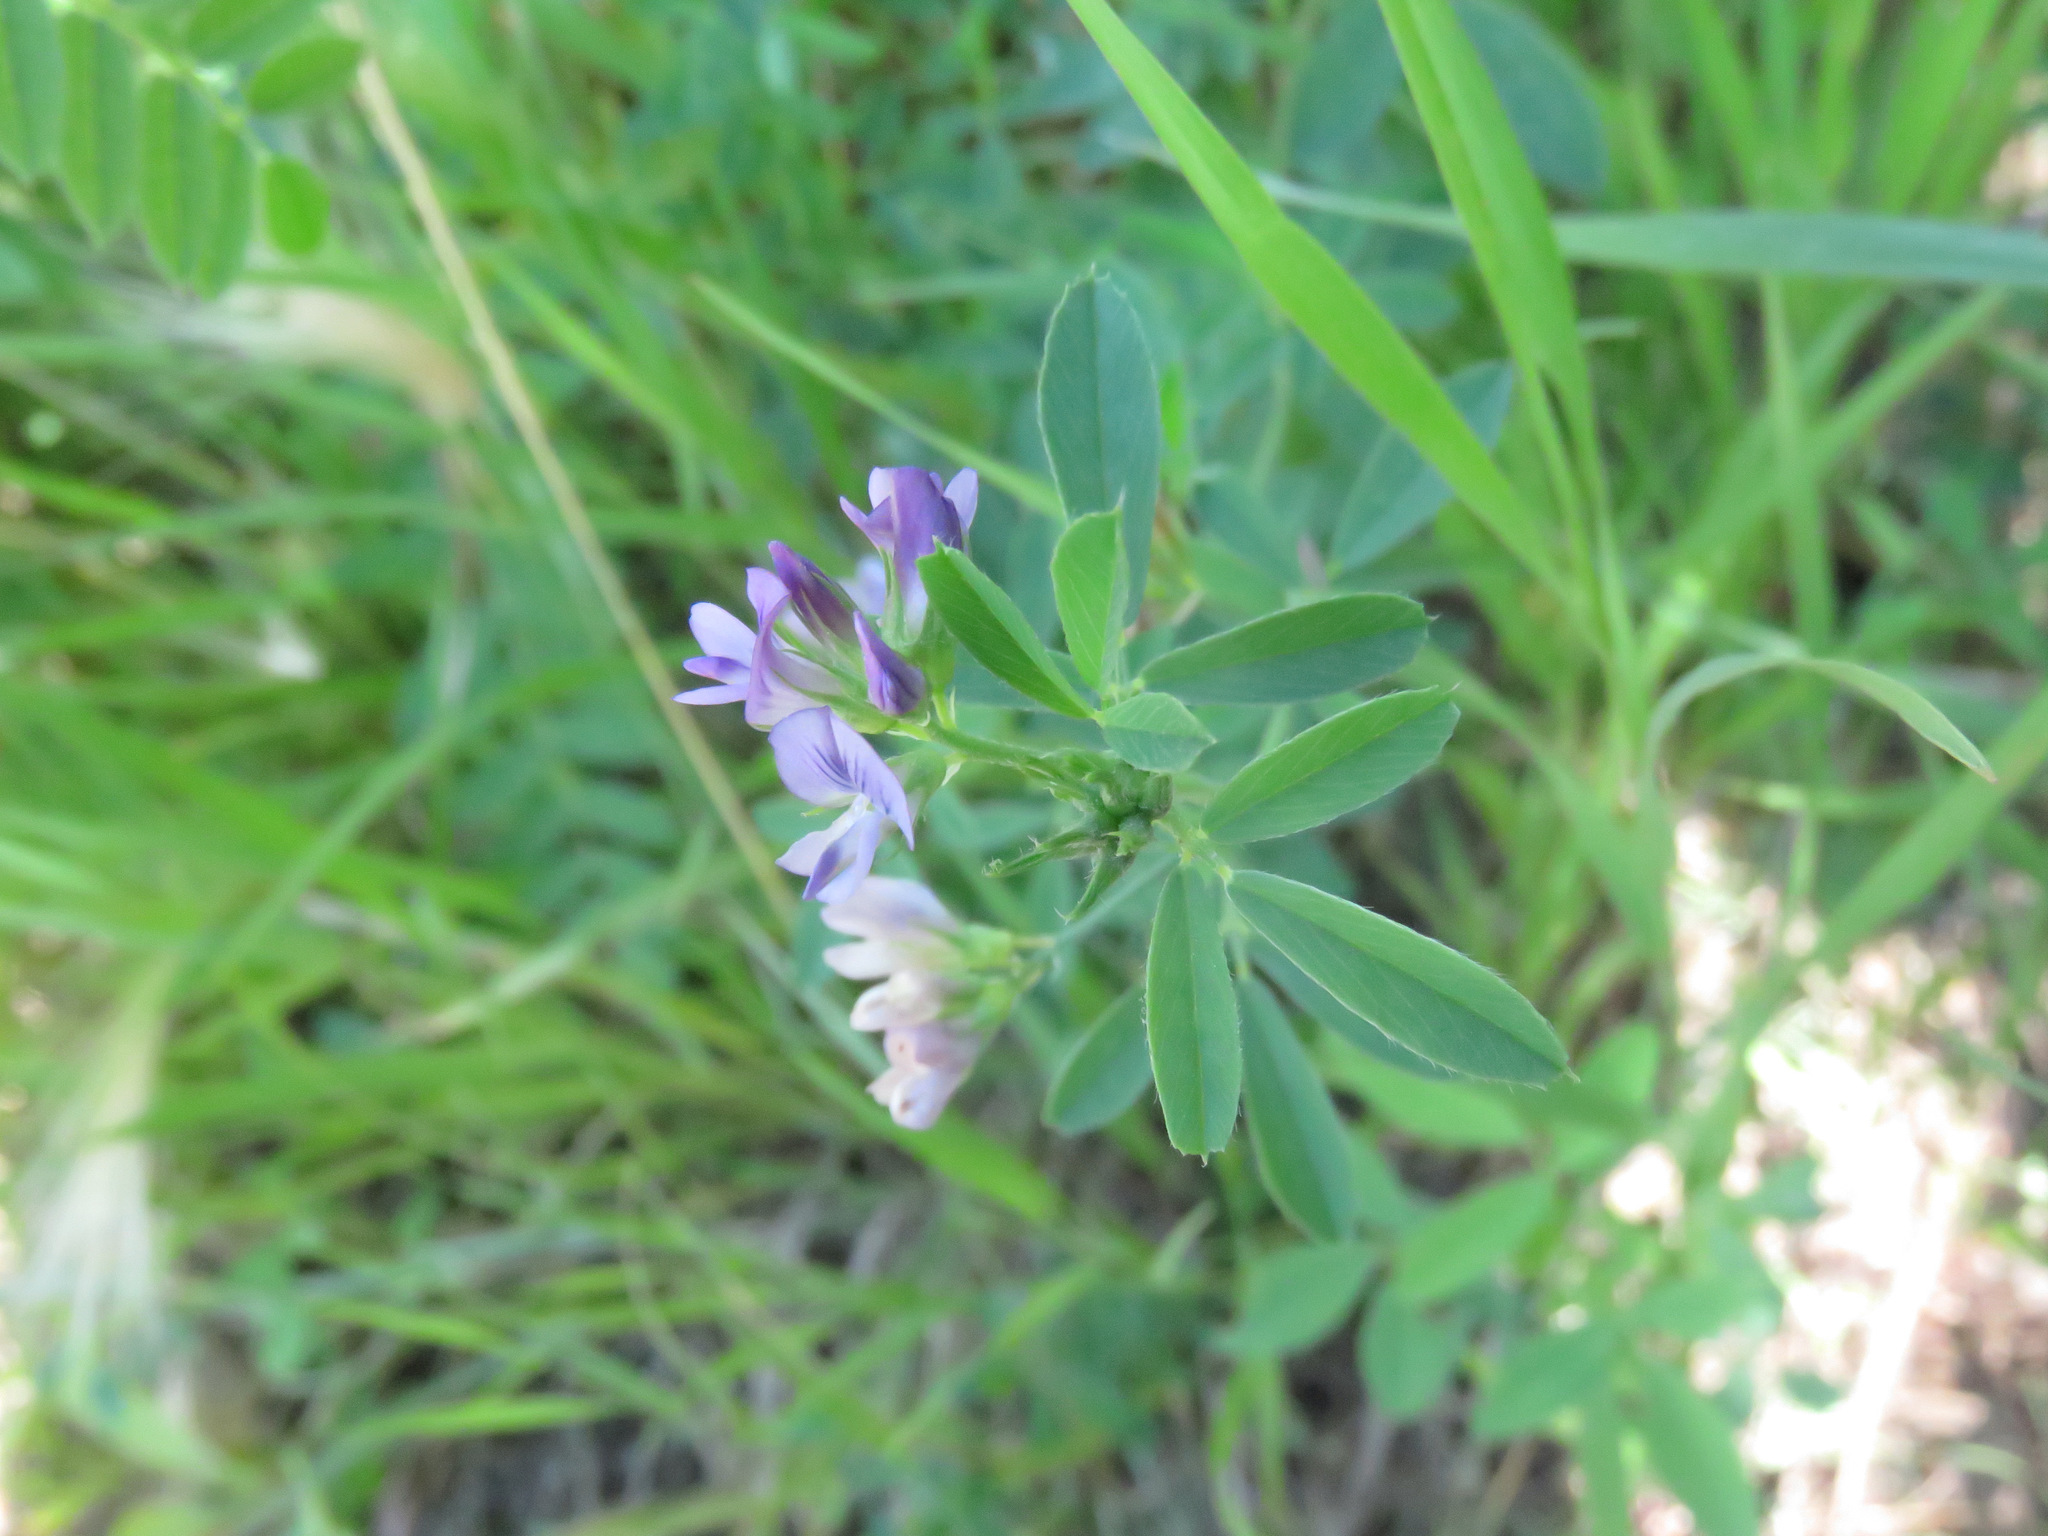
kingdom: Plantae
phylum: Tracheophyta
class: Magnoliopsida
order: Fabales
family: Fabaceae
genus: Medicago
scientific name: Medicago sativa
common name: Alfalfa
